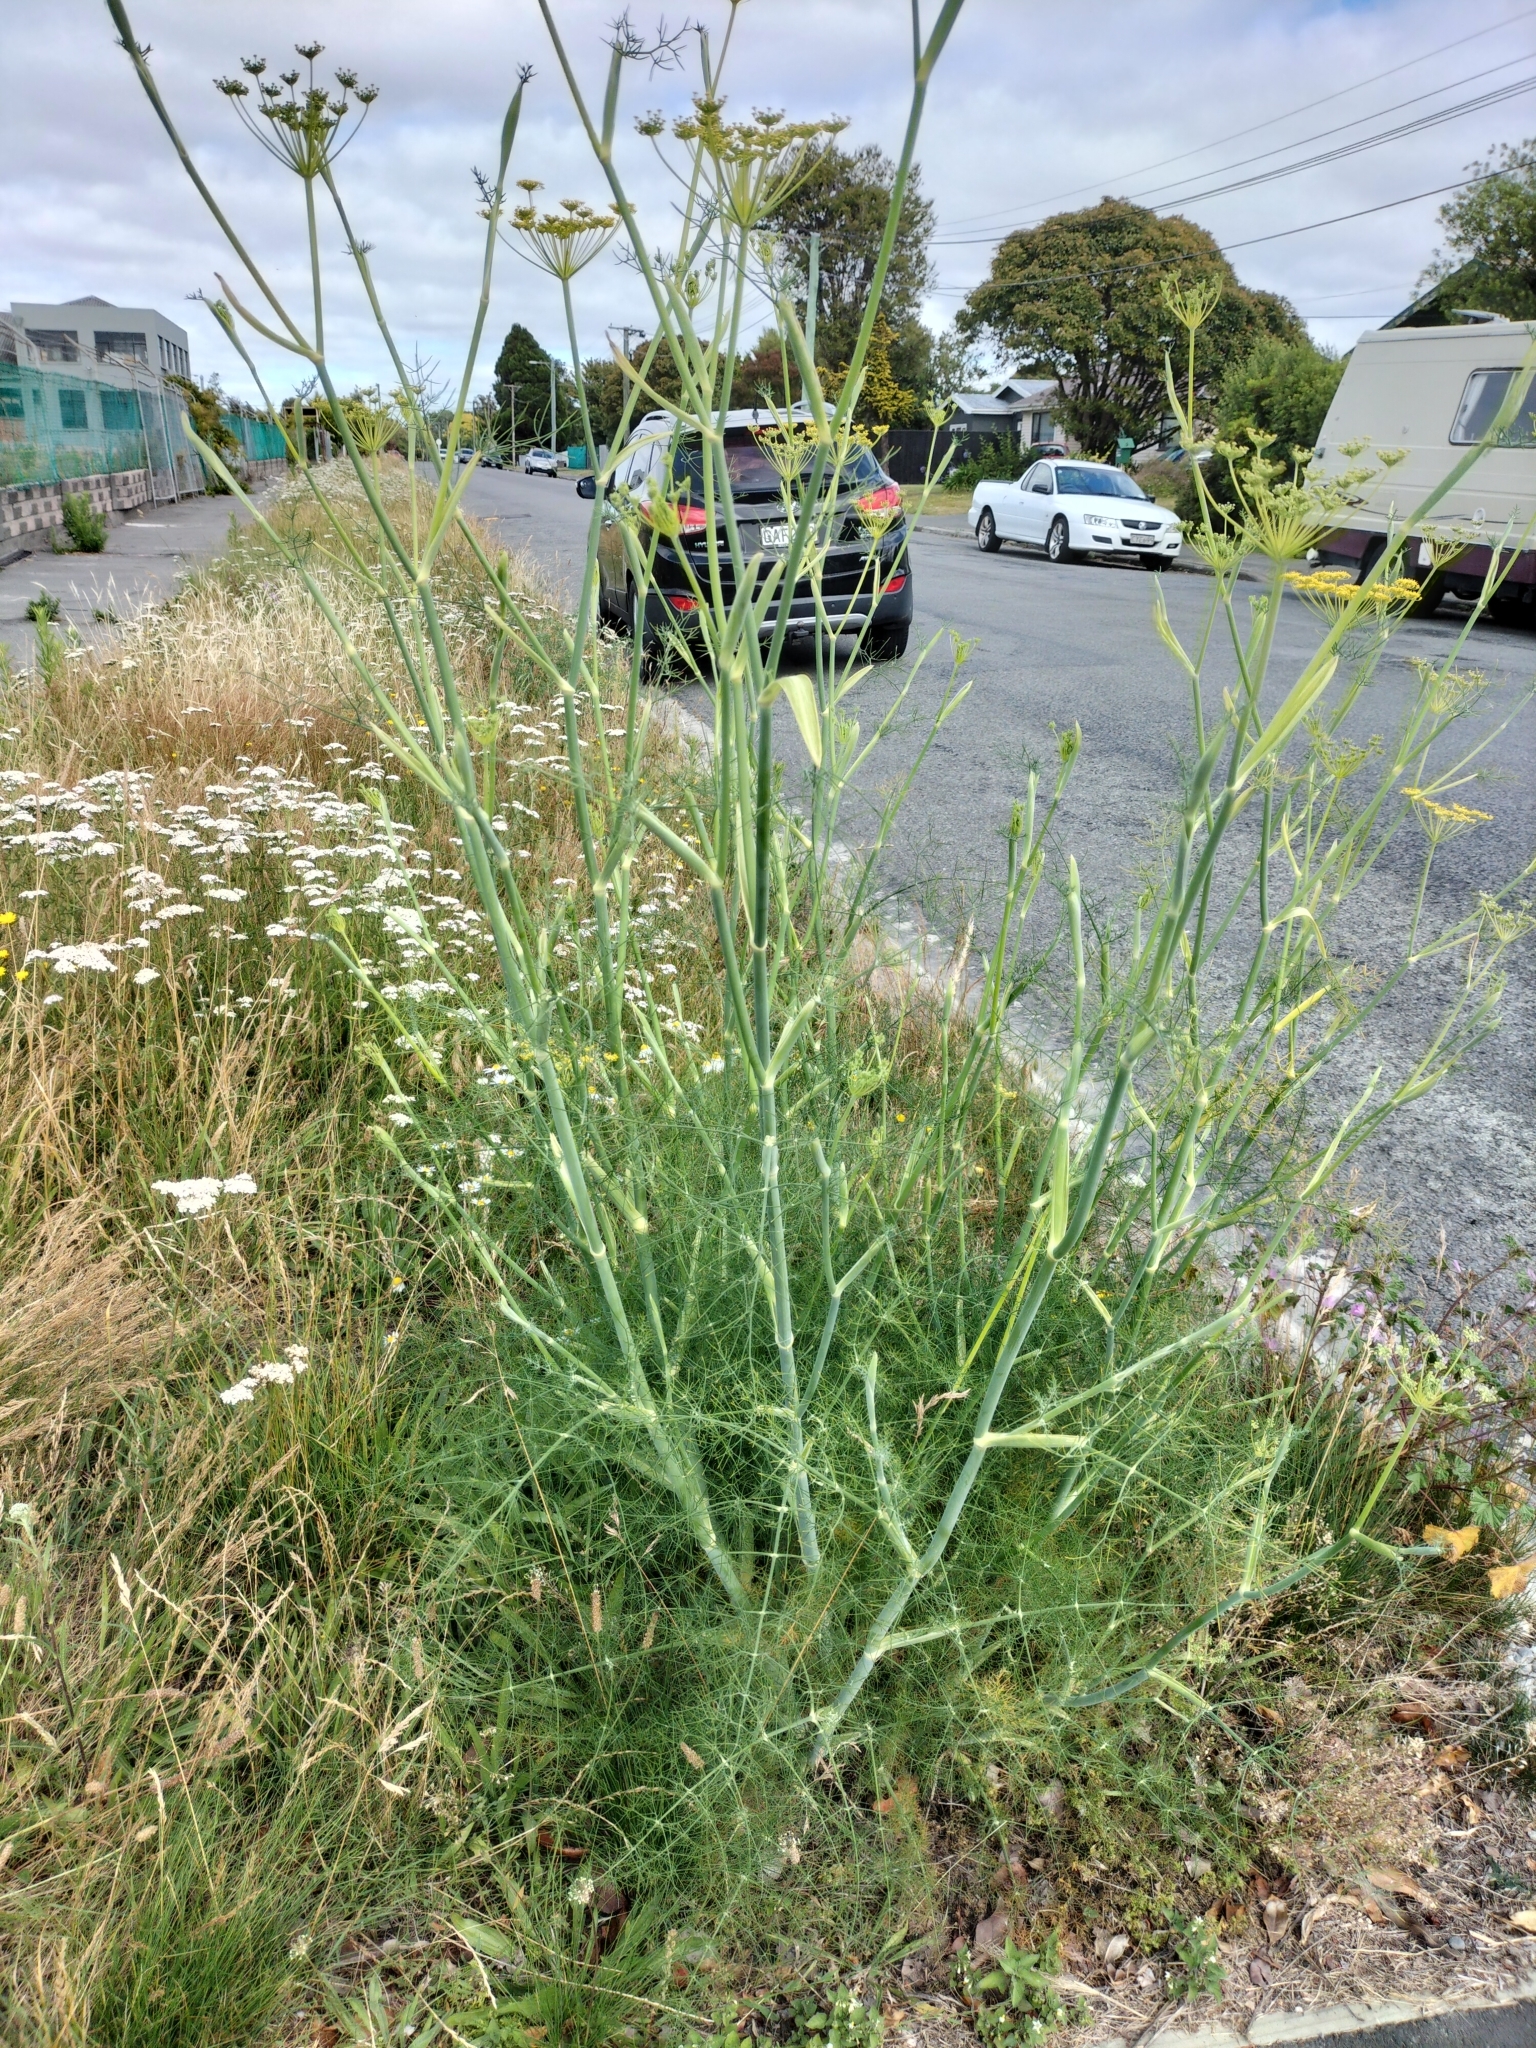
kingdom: Plantae
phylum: Tracheophyta
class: Magnoliopsida
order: Apiales
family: Apiaceae
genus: Foeniculum
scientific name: Foeniculum vulgare
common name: Fennel
